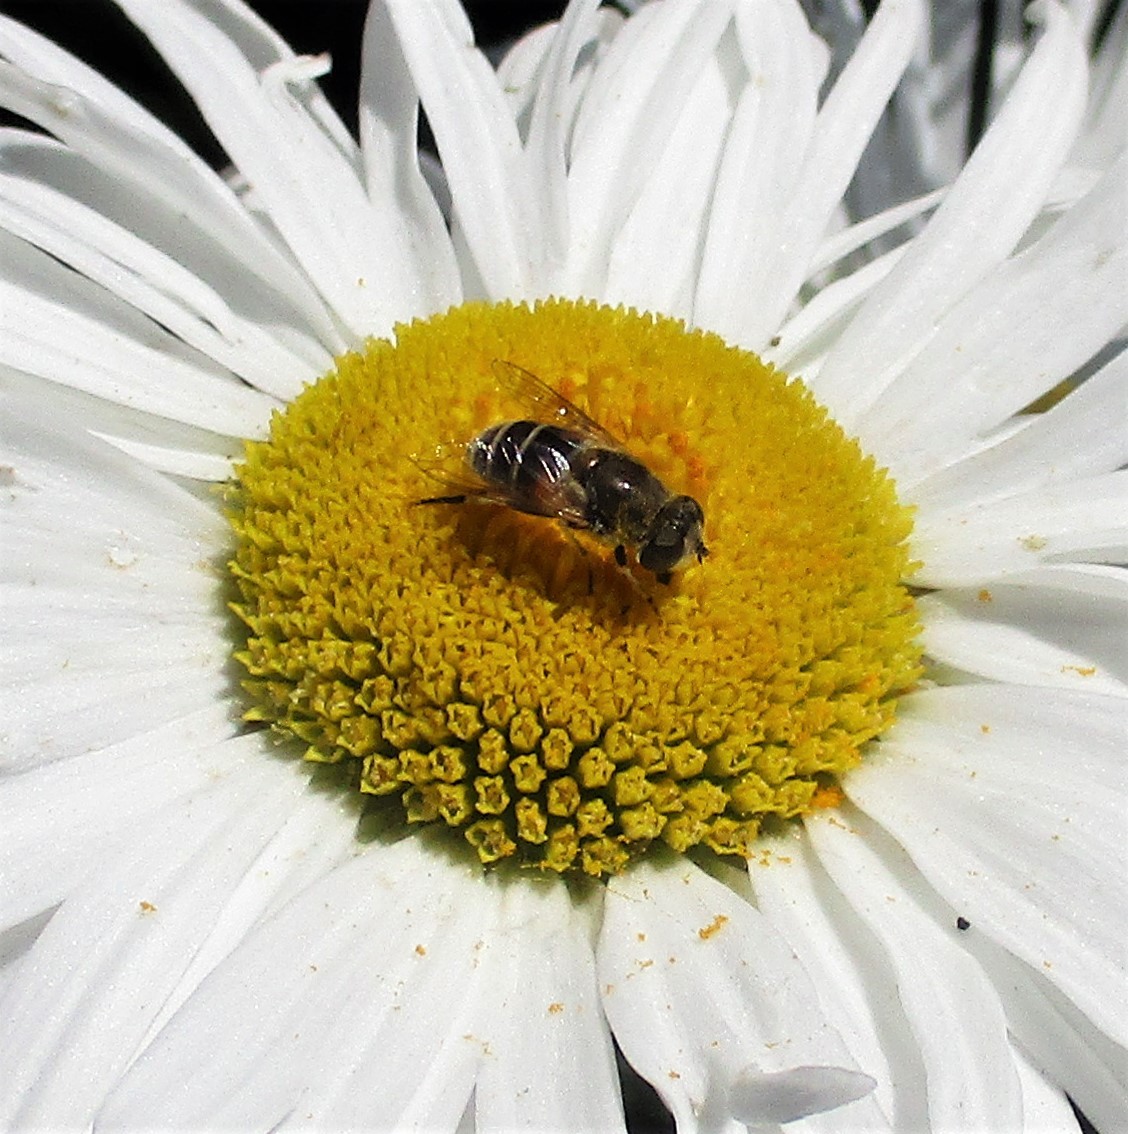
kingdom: Animalia
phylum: Arthropoda
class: Insecta
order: Diptera
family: Syrphidae
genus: Eristalis
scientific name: Eristalis arbustorum
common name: Hover fly
